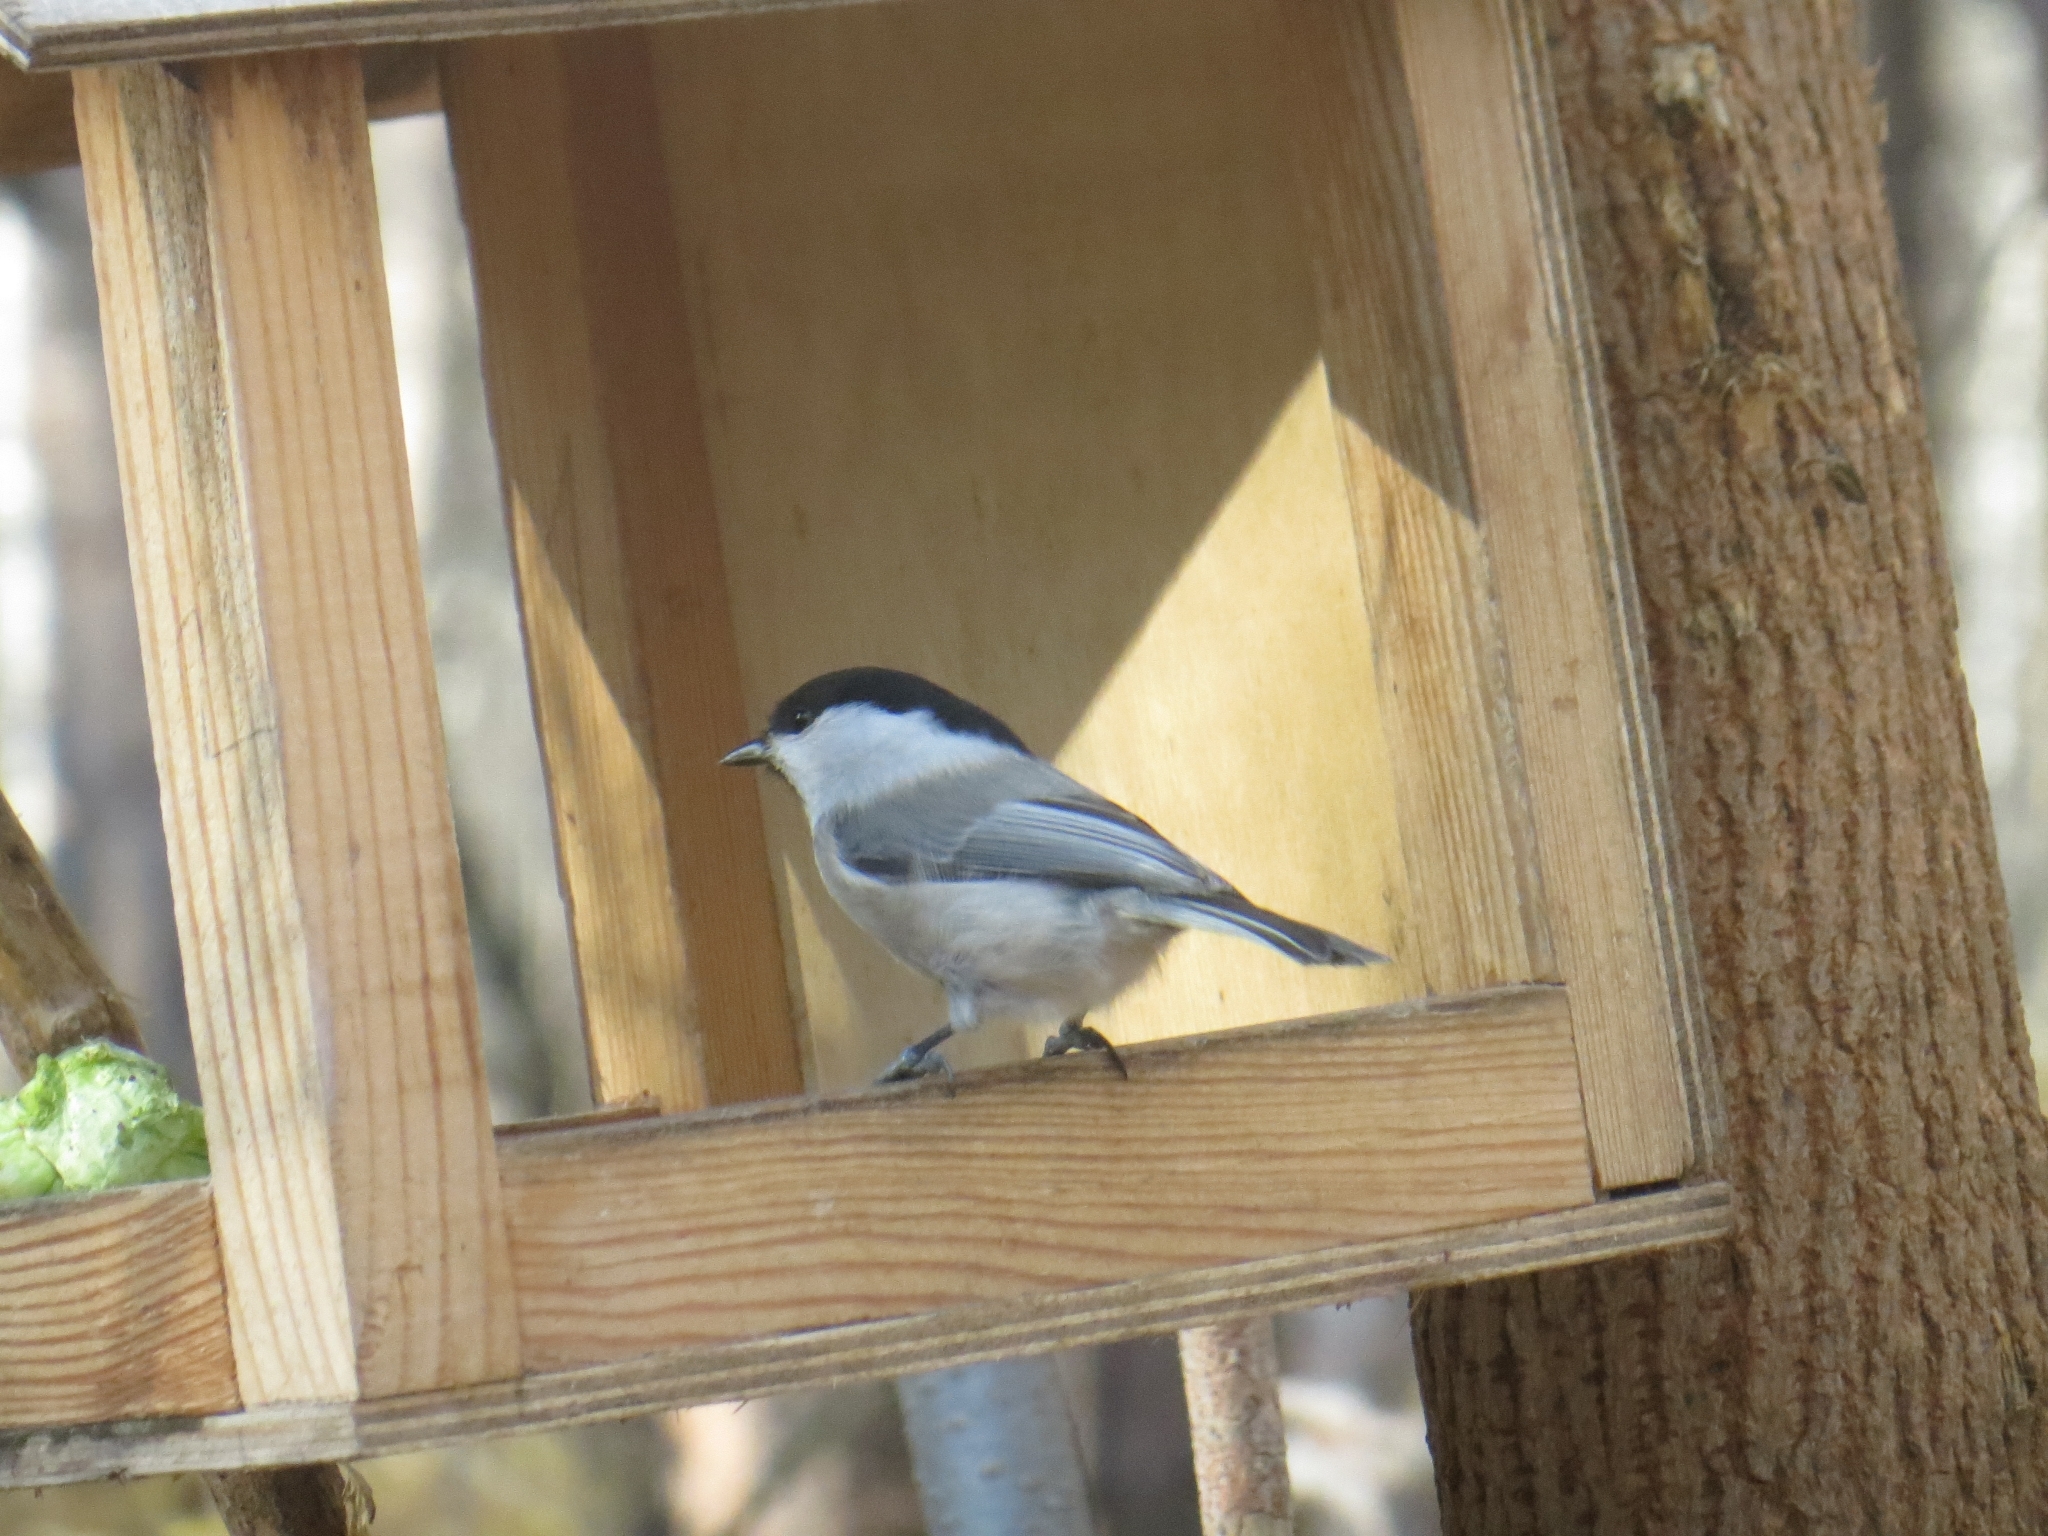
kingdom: Animalia
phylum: Chordata
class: Aves
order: Passeriformes
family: Paridae
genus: Poecile
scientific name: Poecile montanus
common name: Willow tit
